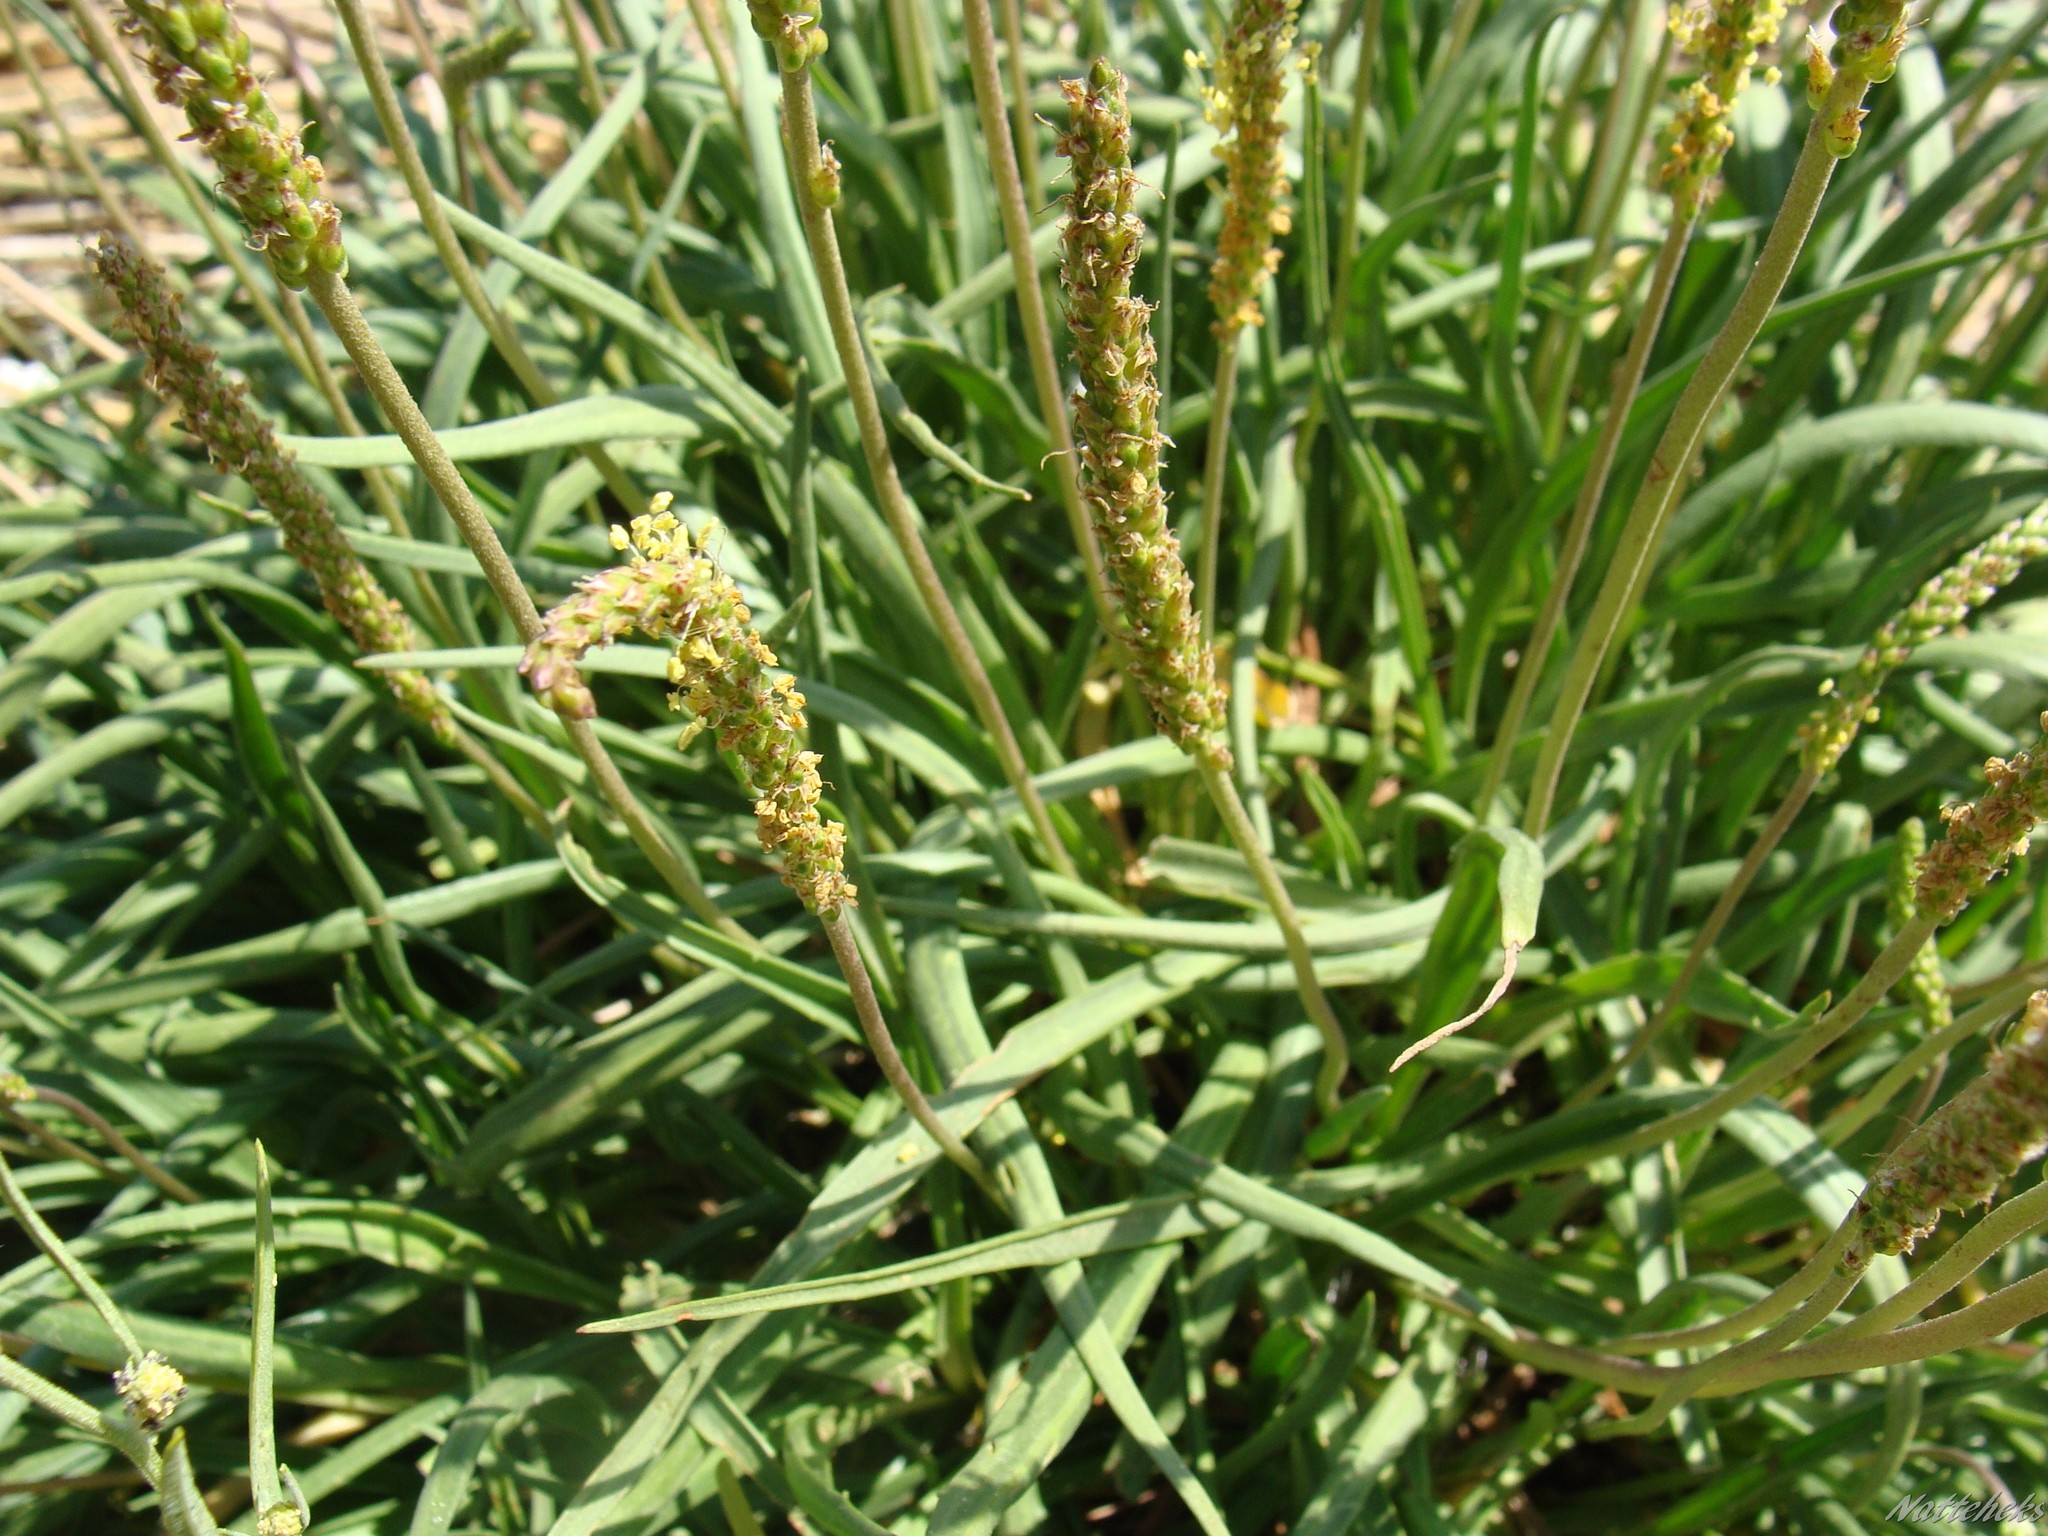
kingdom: Plantae
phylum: Tracheophyta
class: Magnoliopsida
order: Lamiales
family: Plantaginaceae
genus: Plantago
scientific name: Plantago maritima
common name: Sea plantain
